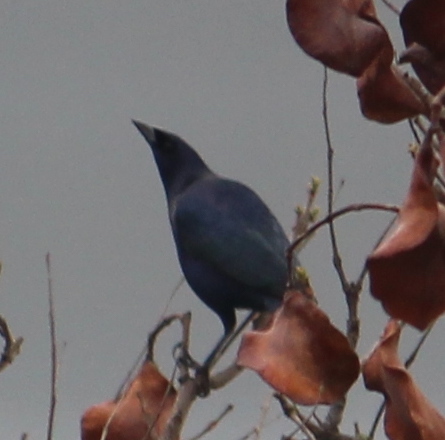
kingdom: Animalia
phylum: Chordata
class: Aves
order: Passeriformes
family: Icteridae
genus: Molothrus
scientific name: Molothrus bonariensis
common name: Shiny cowbird
